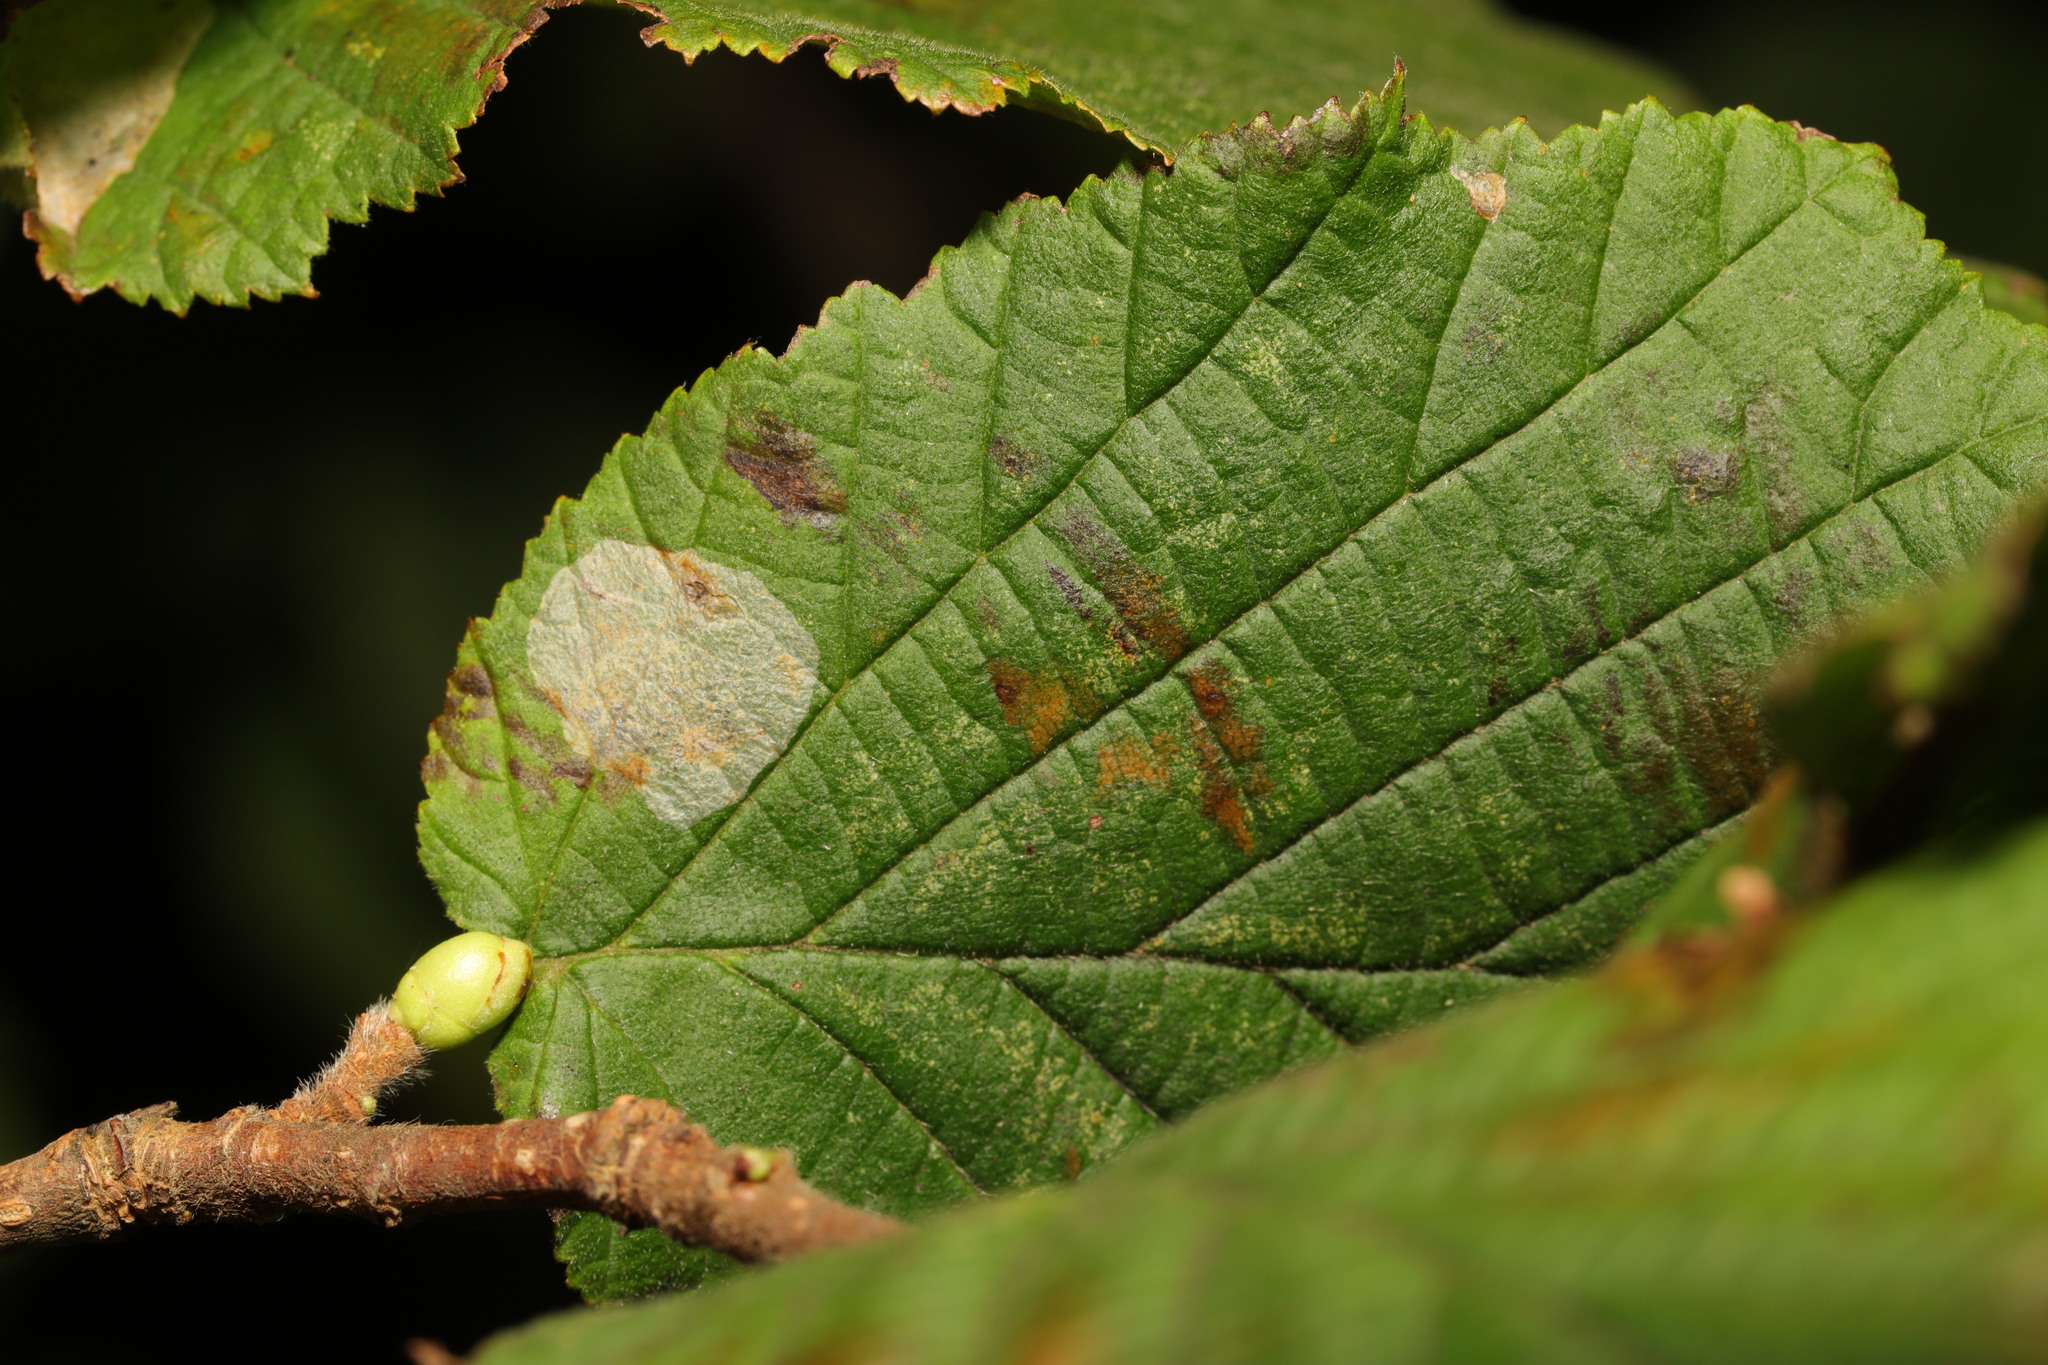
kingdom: Animalia
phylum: Arthropoda
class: Insecta
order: Lepidoptera
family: Gracillariidae
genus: Phyllonorycter
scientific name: Phyllonorycter coryli
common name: Nut-leaf blister moth
